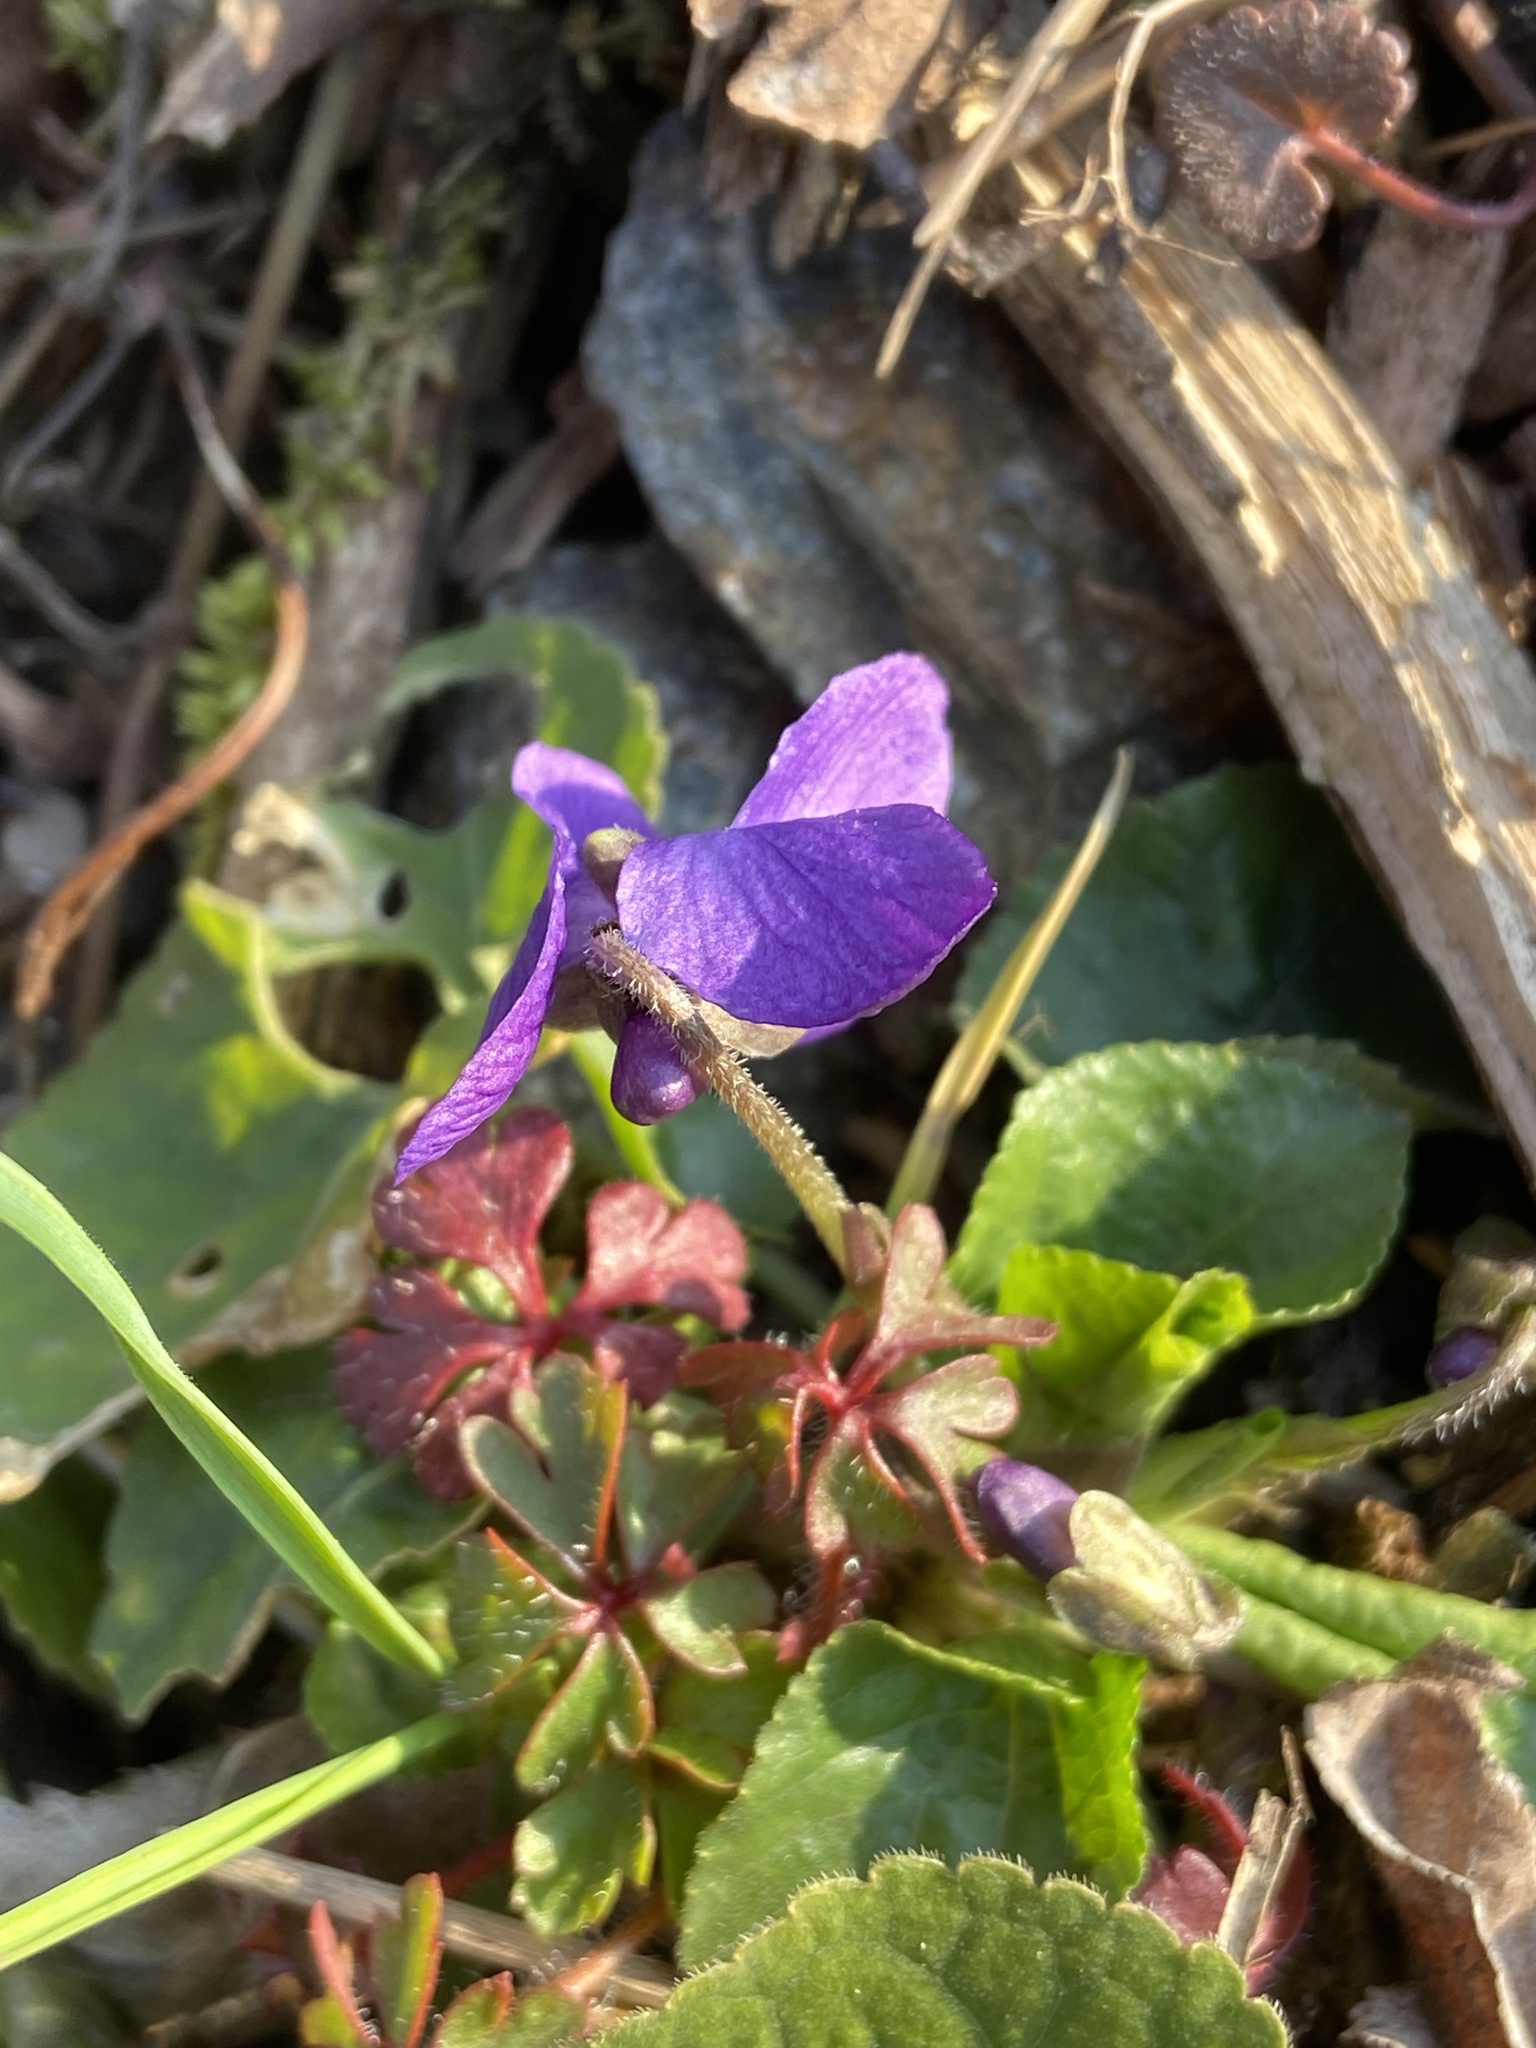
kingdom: Plantae
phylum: Tracheophyta
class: Magnoliopsida
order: Malpighiales
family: Violaceae
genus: Viola
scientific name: Viola odorata
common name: Sweet violet
